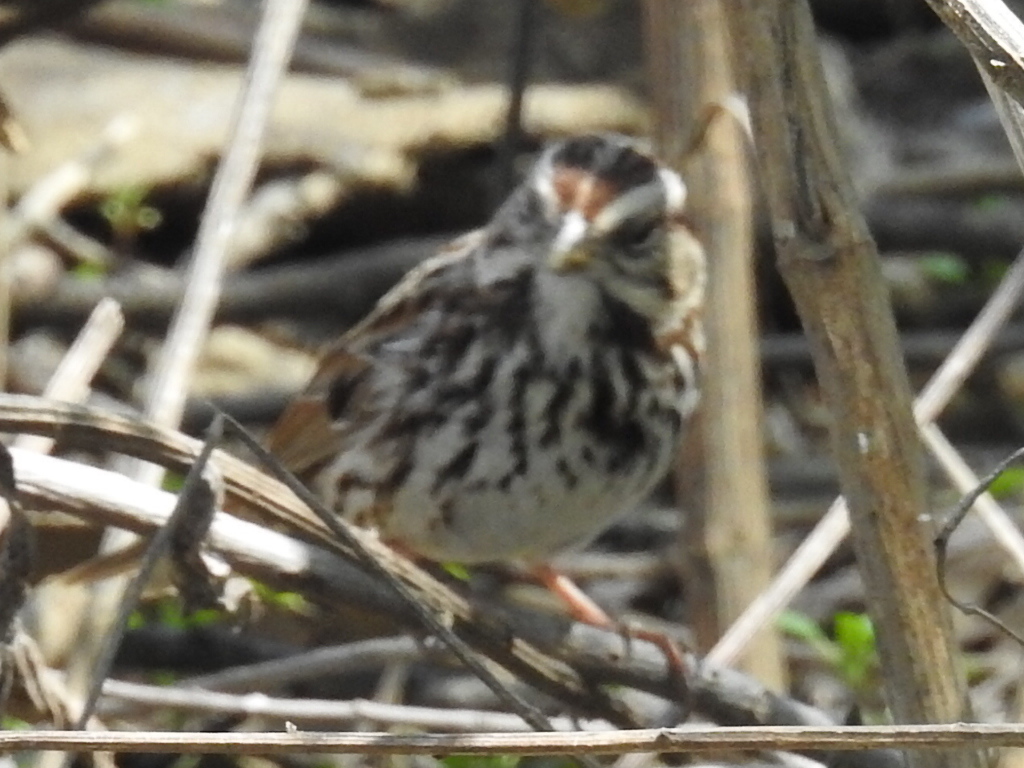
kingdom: Animalia
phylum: Chordata
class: Aves
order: Passeriformes
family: Passerellidae
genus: Melospiza
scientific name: Melospiza melodia
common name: Song sparrow
